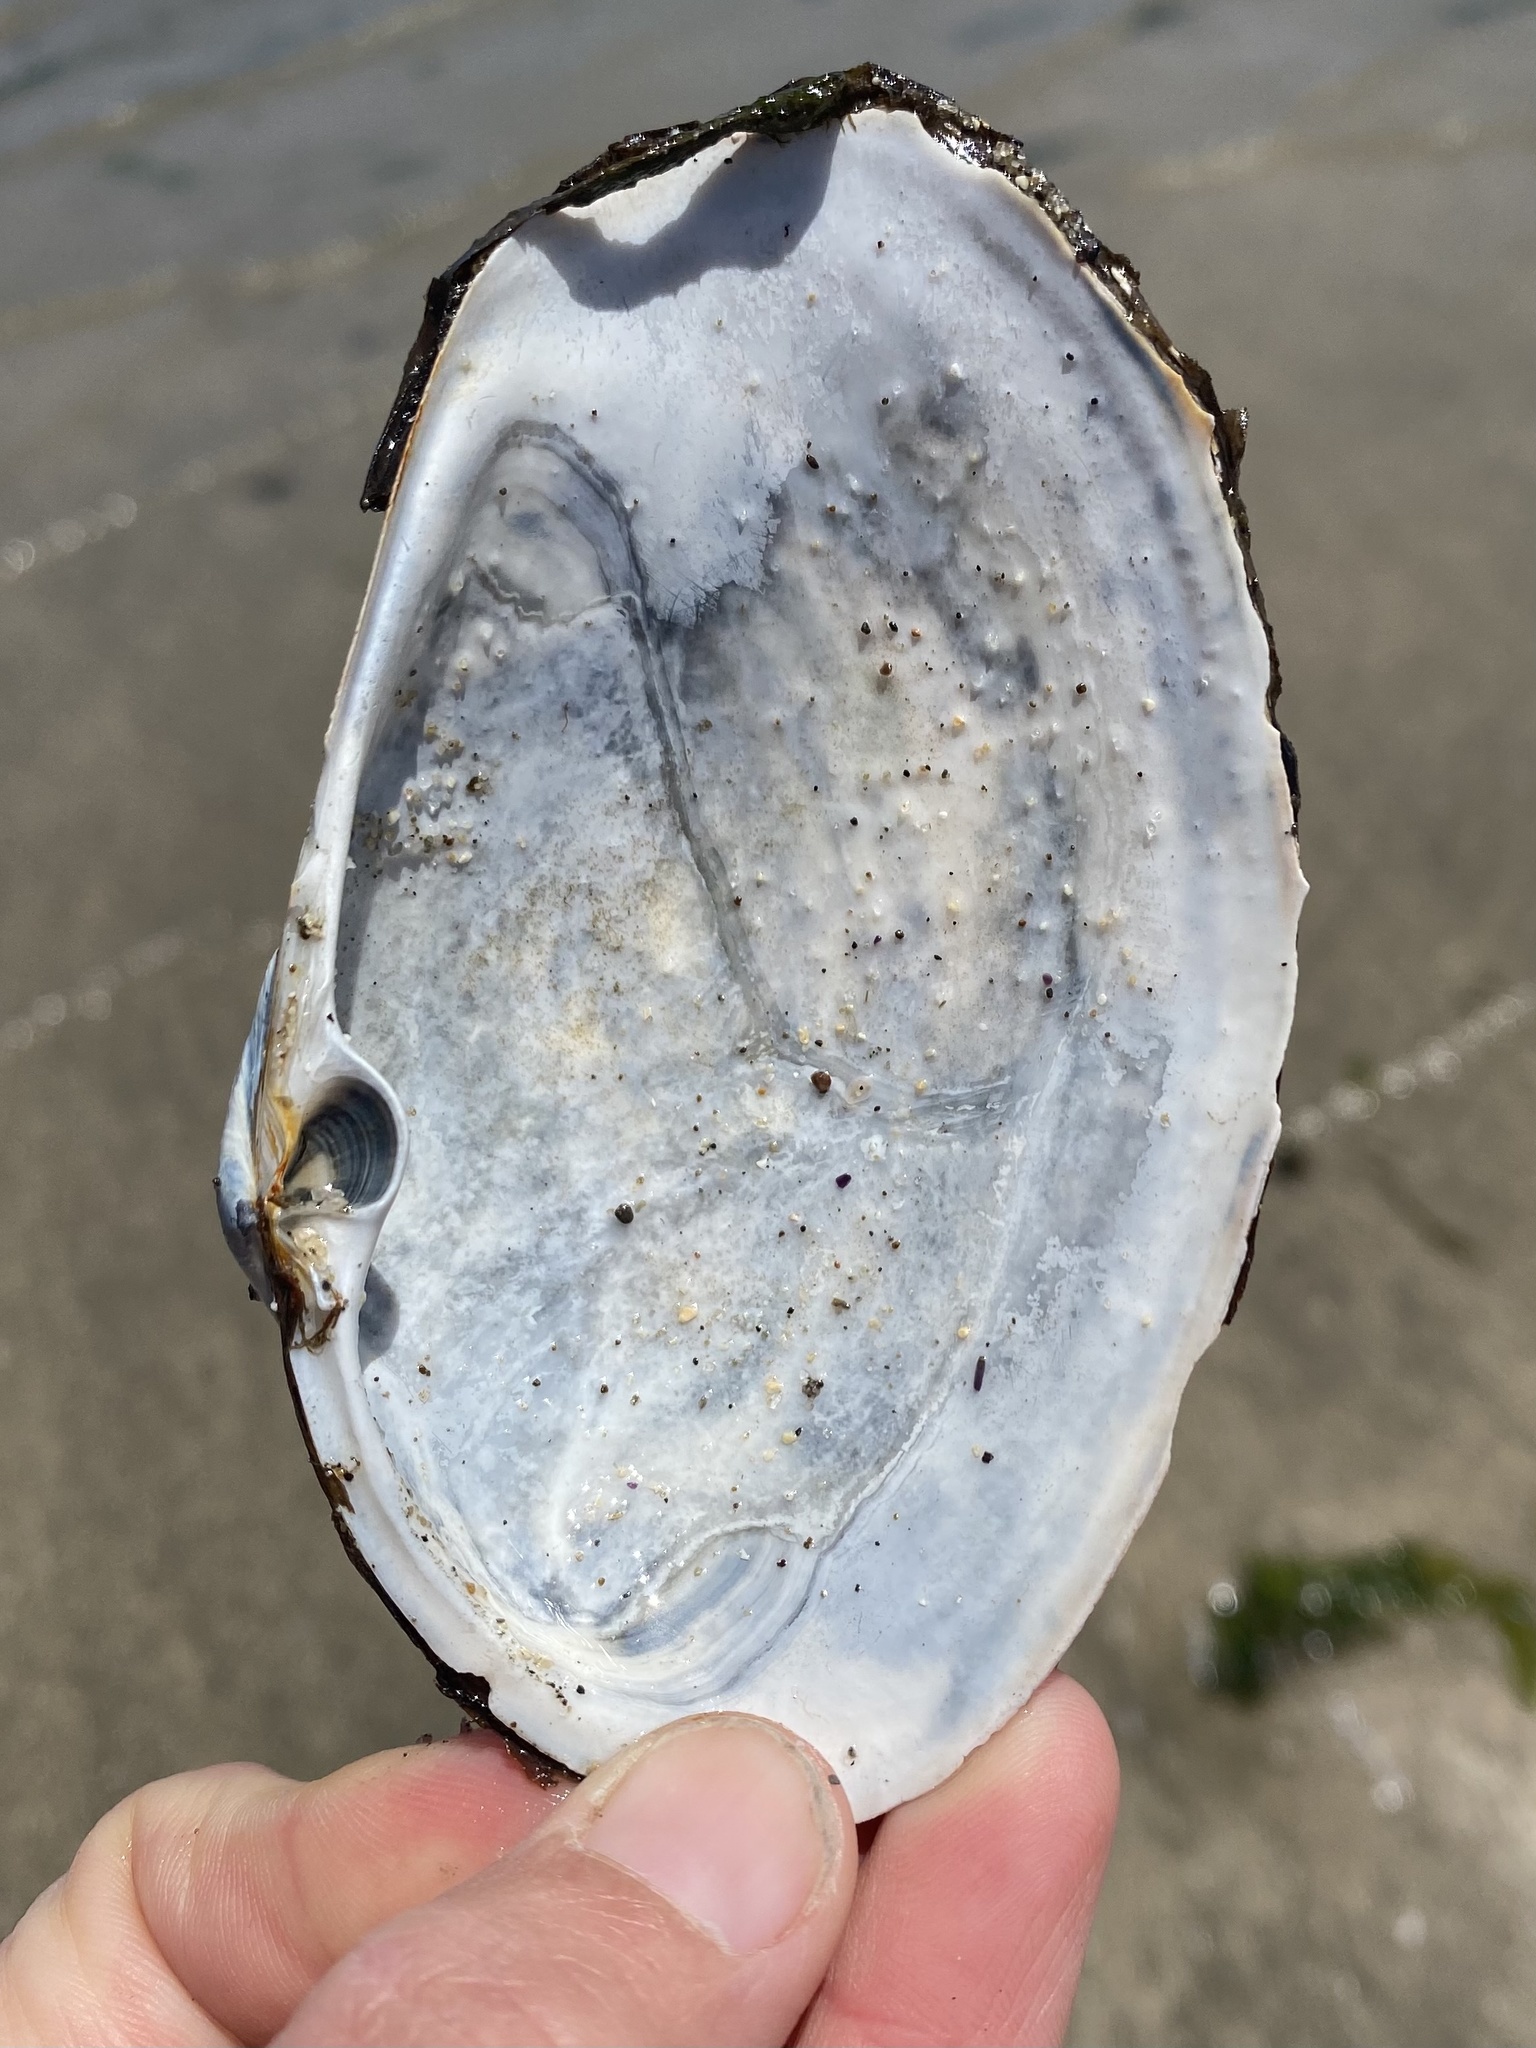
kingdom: Animalia
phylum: Mollusca
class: Bivalvia
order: Venerida
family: Mactridae
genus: Tresus
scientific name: Tresus nuttallii
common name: Pacific gaper clam
